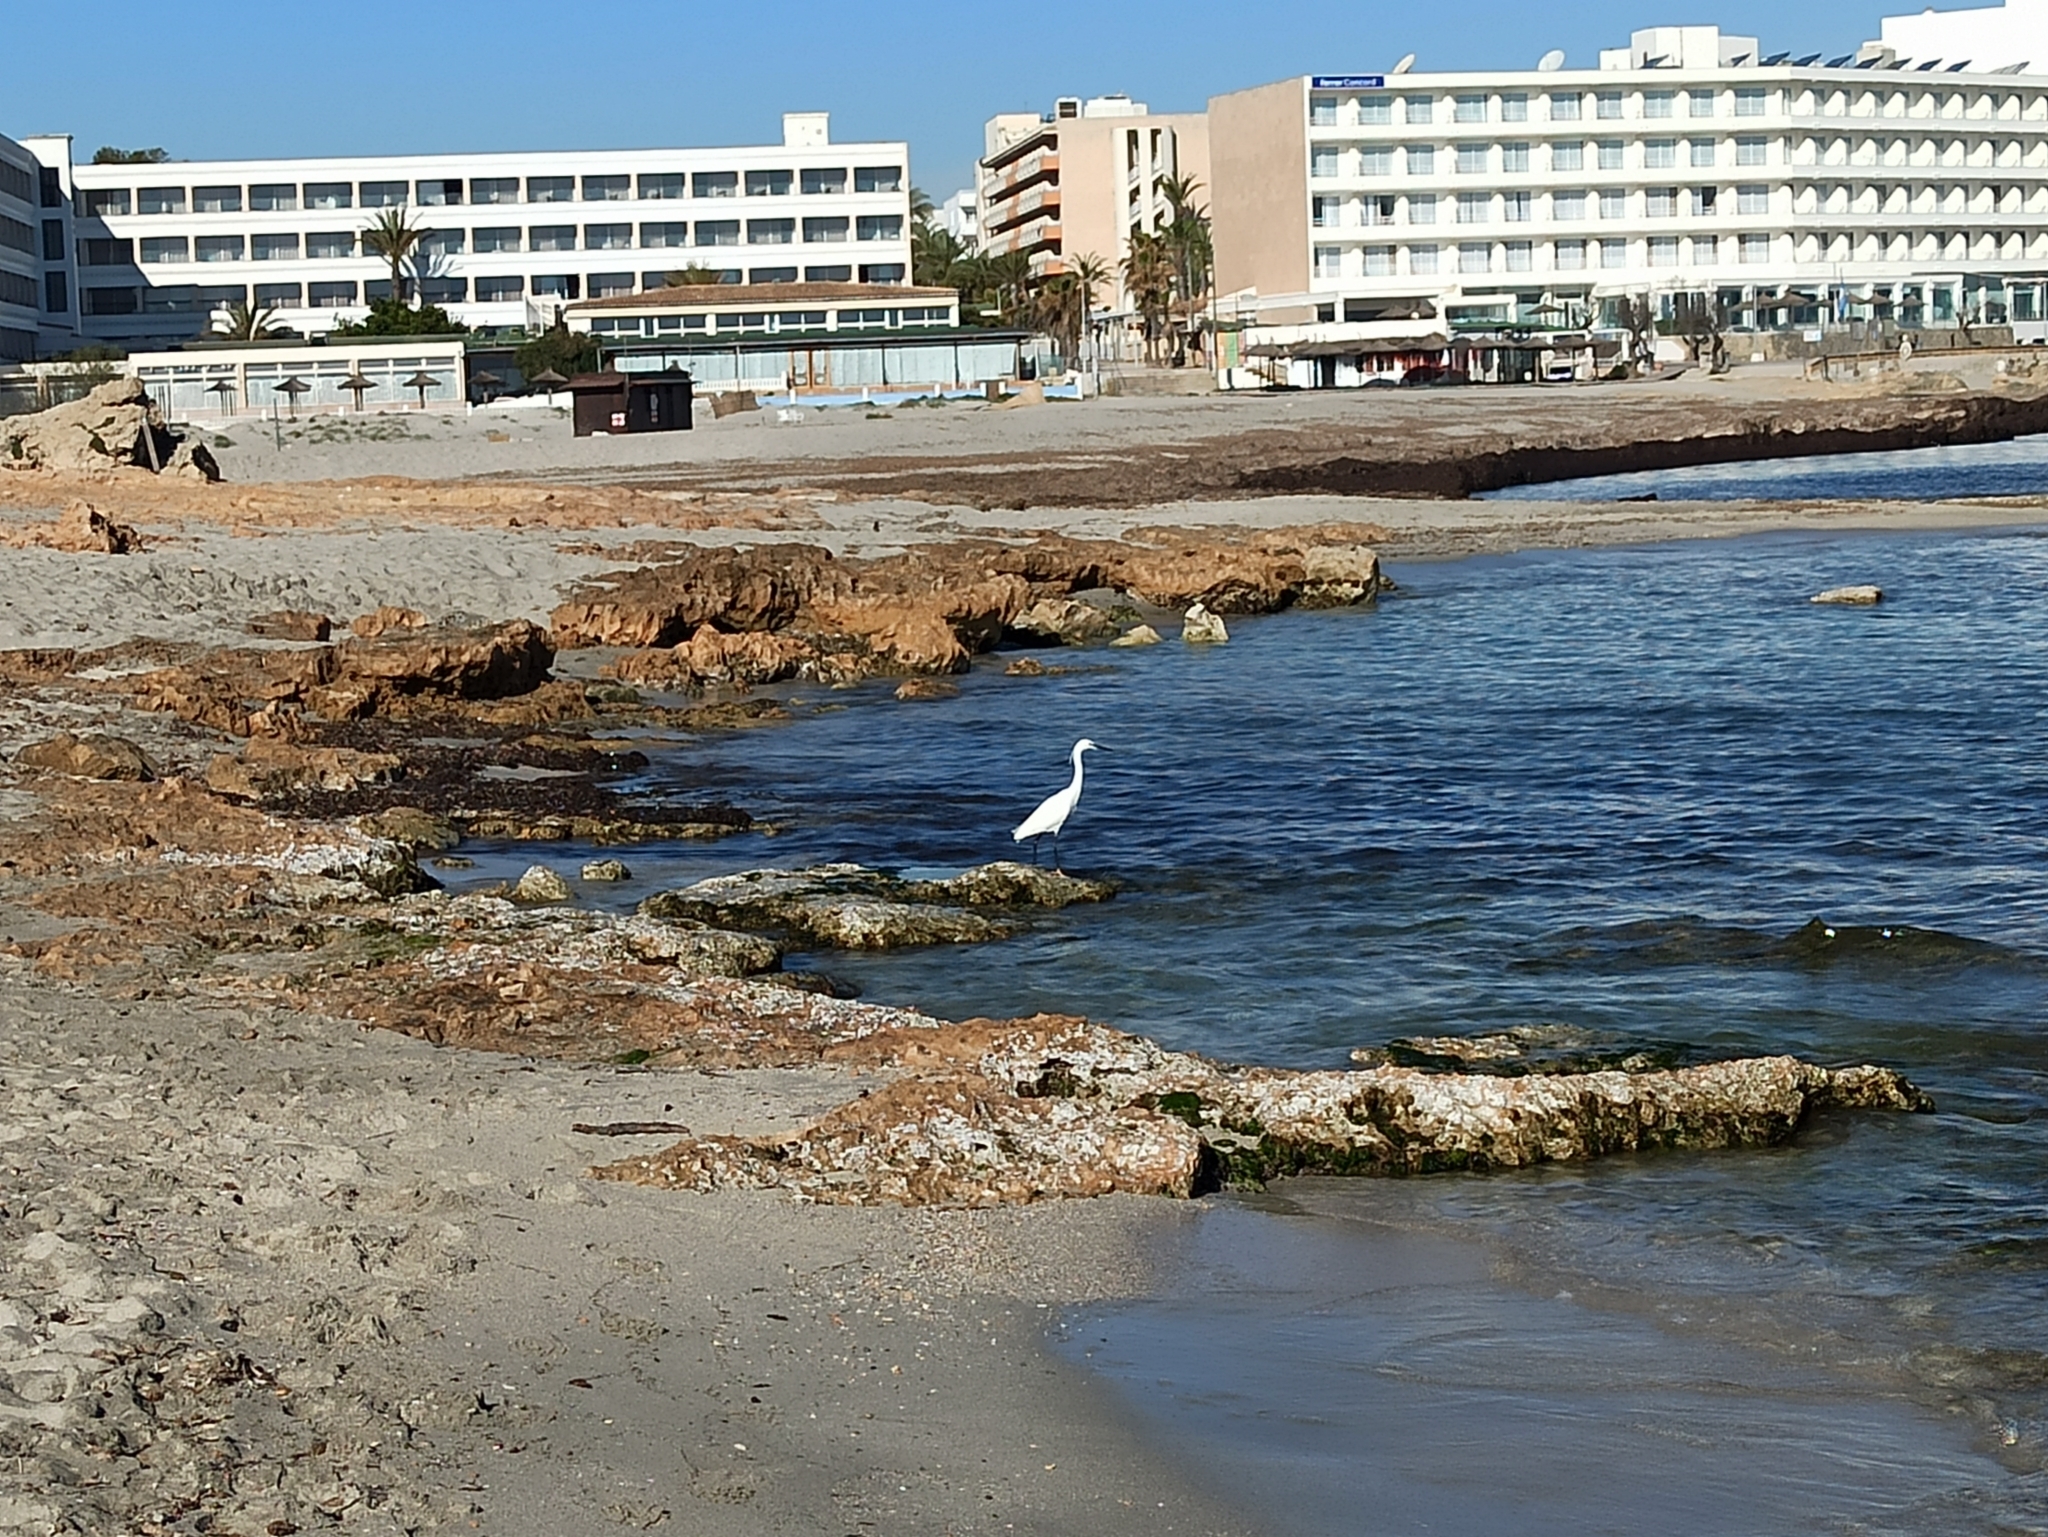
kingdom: Animalia
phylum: Chordata
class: Aves
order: Pelecaniformes
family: Ardeidae
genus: Egretta
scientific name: Egretta garzetta
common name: Little egret
